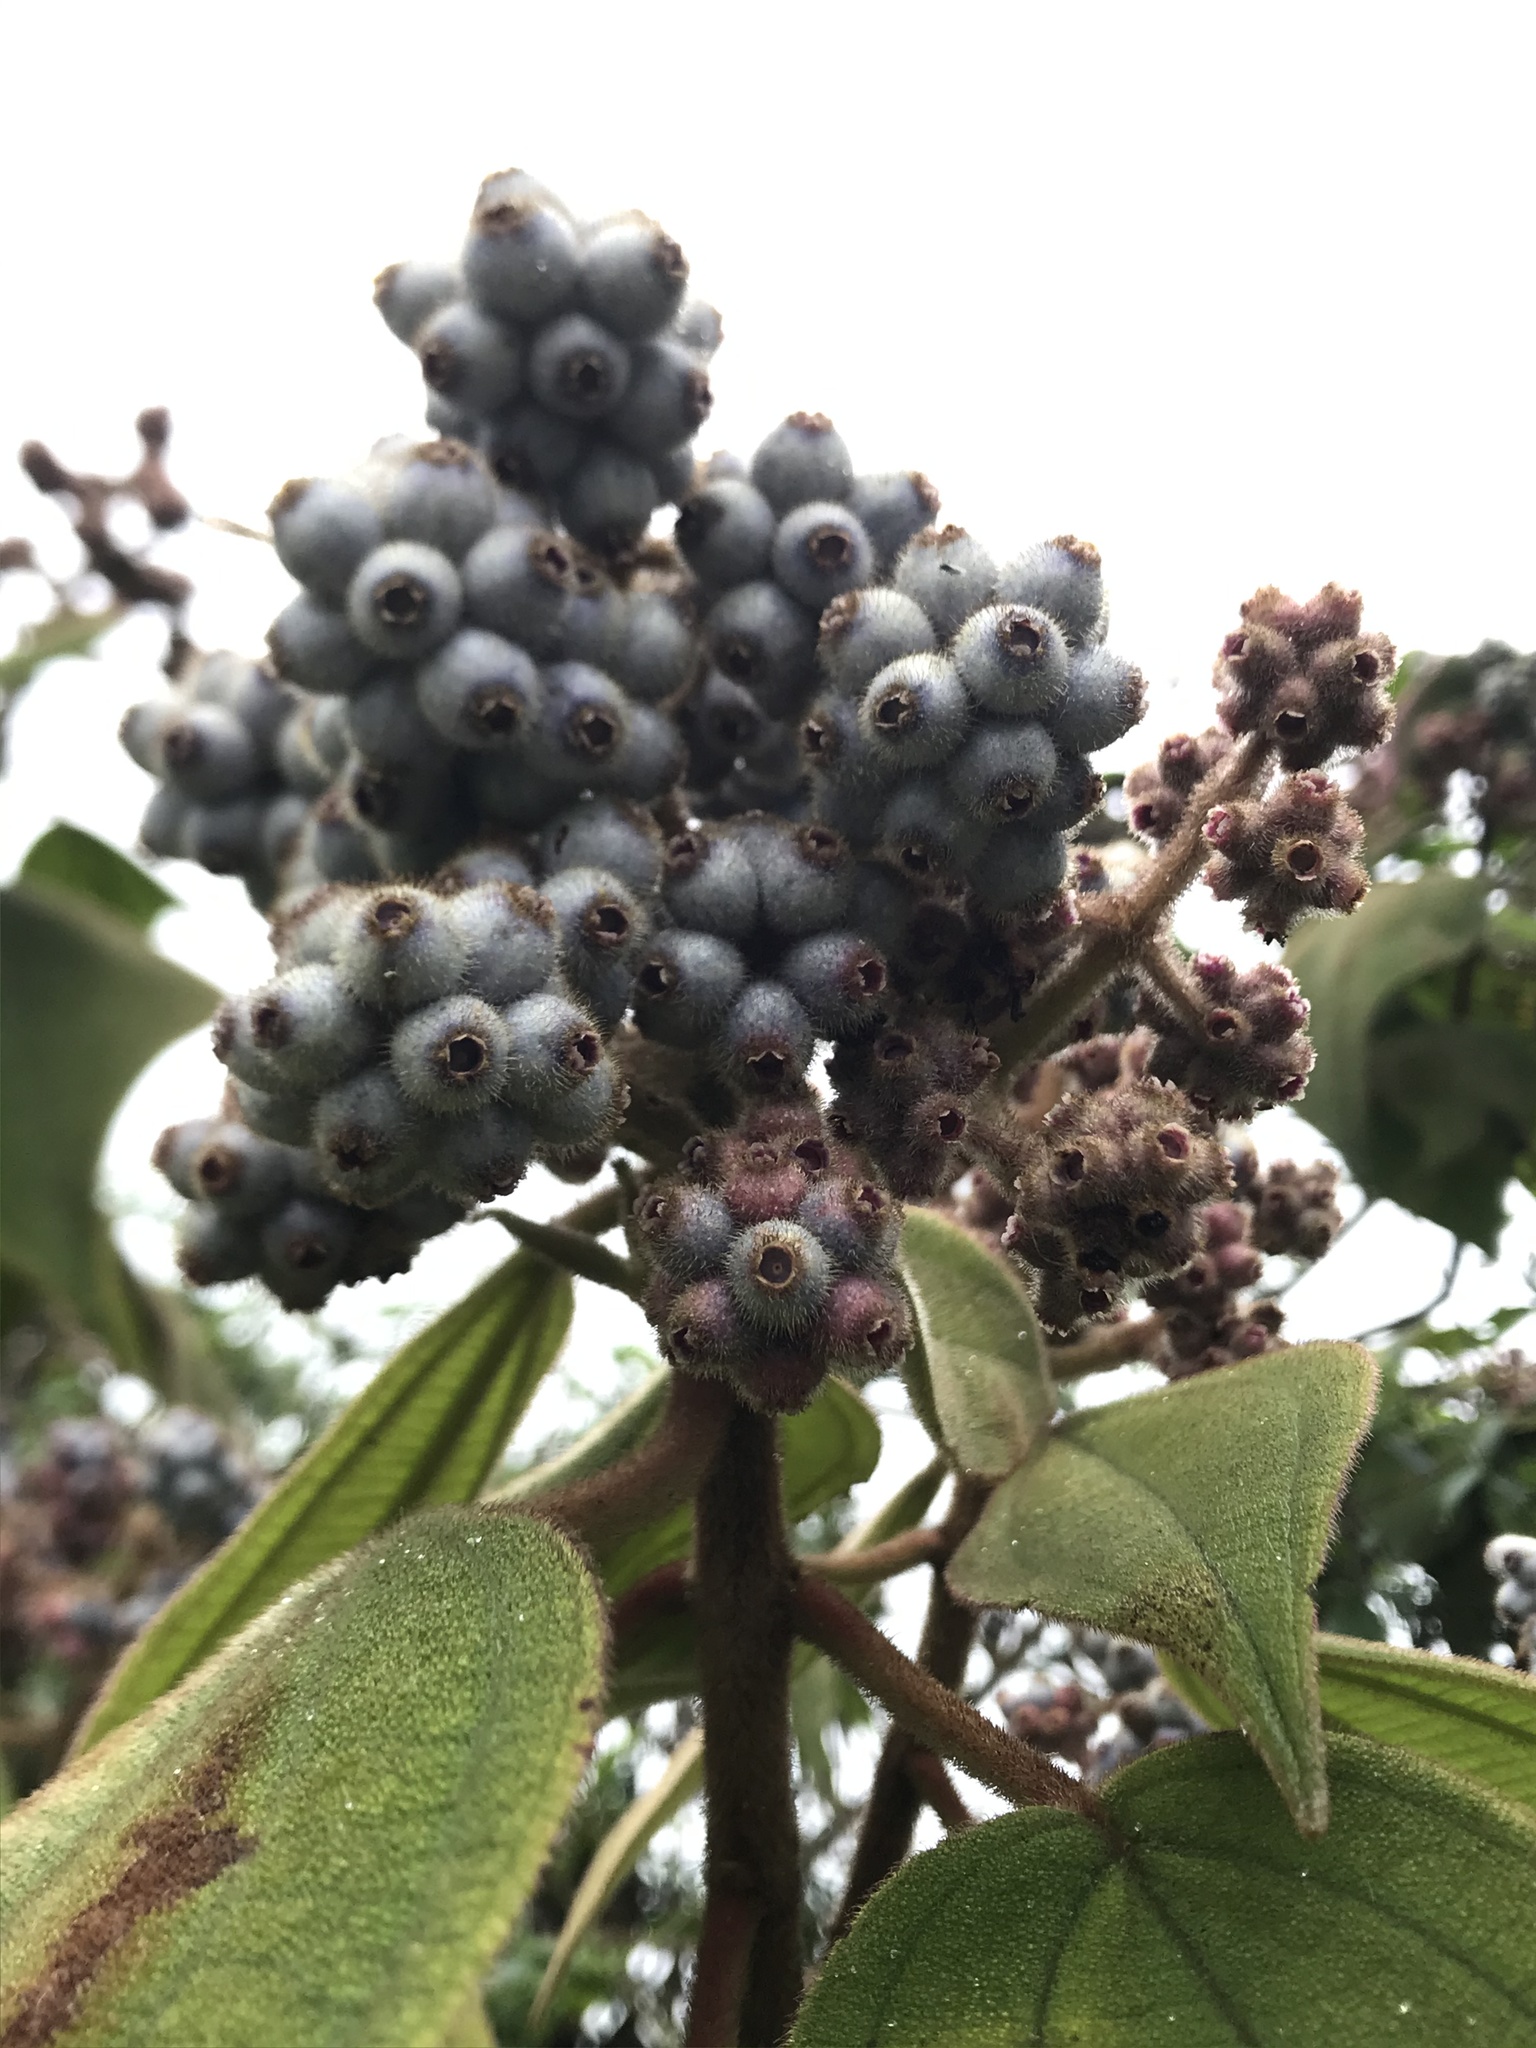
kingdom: Plantae
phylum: Tracheophyta
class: Magnoliopsida
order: Myrtales
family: Melastomataceae
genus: Miconia
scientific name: Miconia crinita
